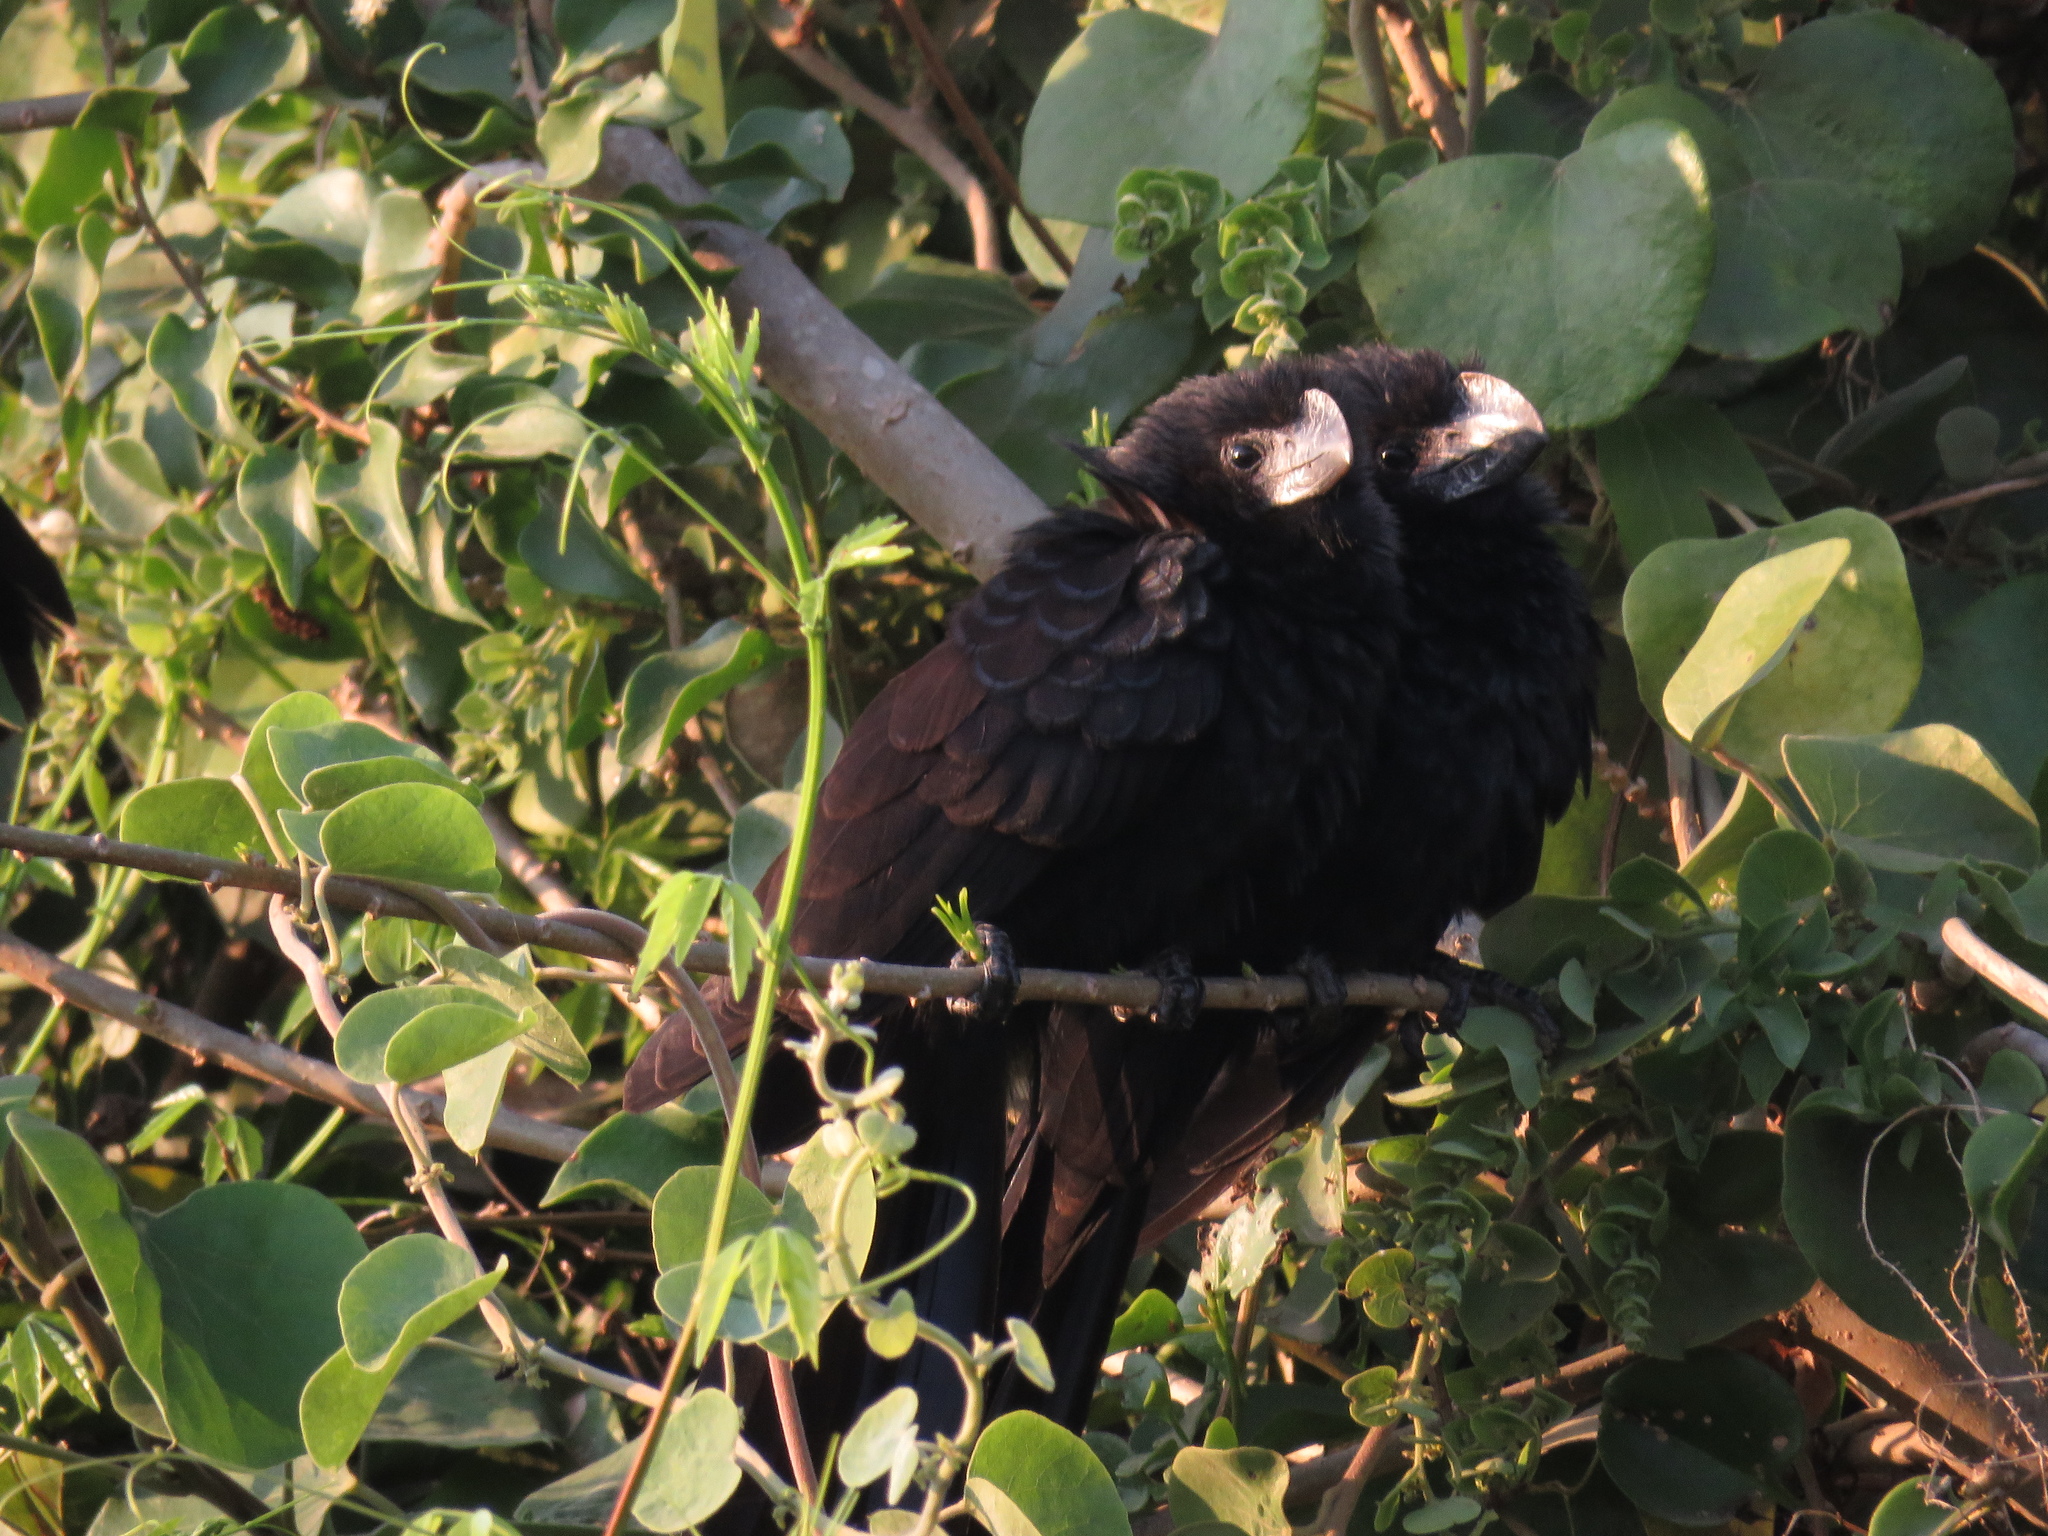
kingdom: Animalia
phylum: Chordata
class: Aves
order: Cuculiformes
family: Cuculidae
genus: Crotophaga
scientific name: Crotophaga ani
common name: Smooth-billed ani
